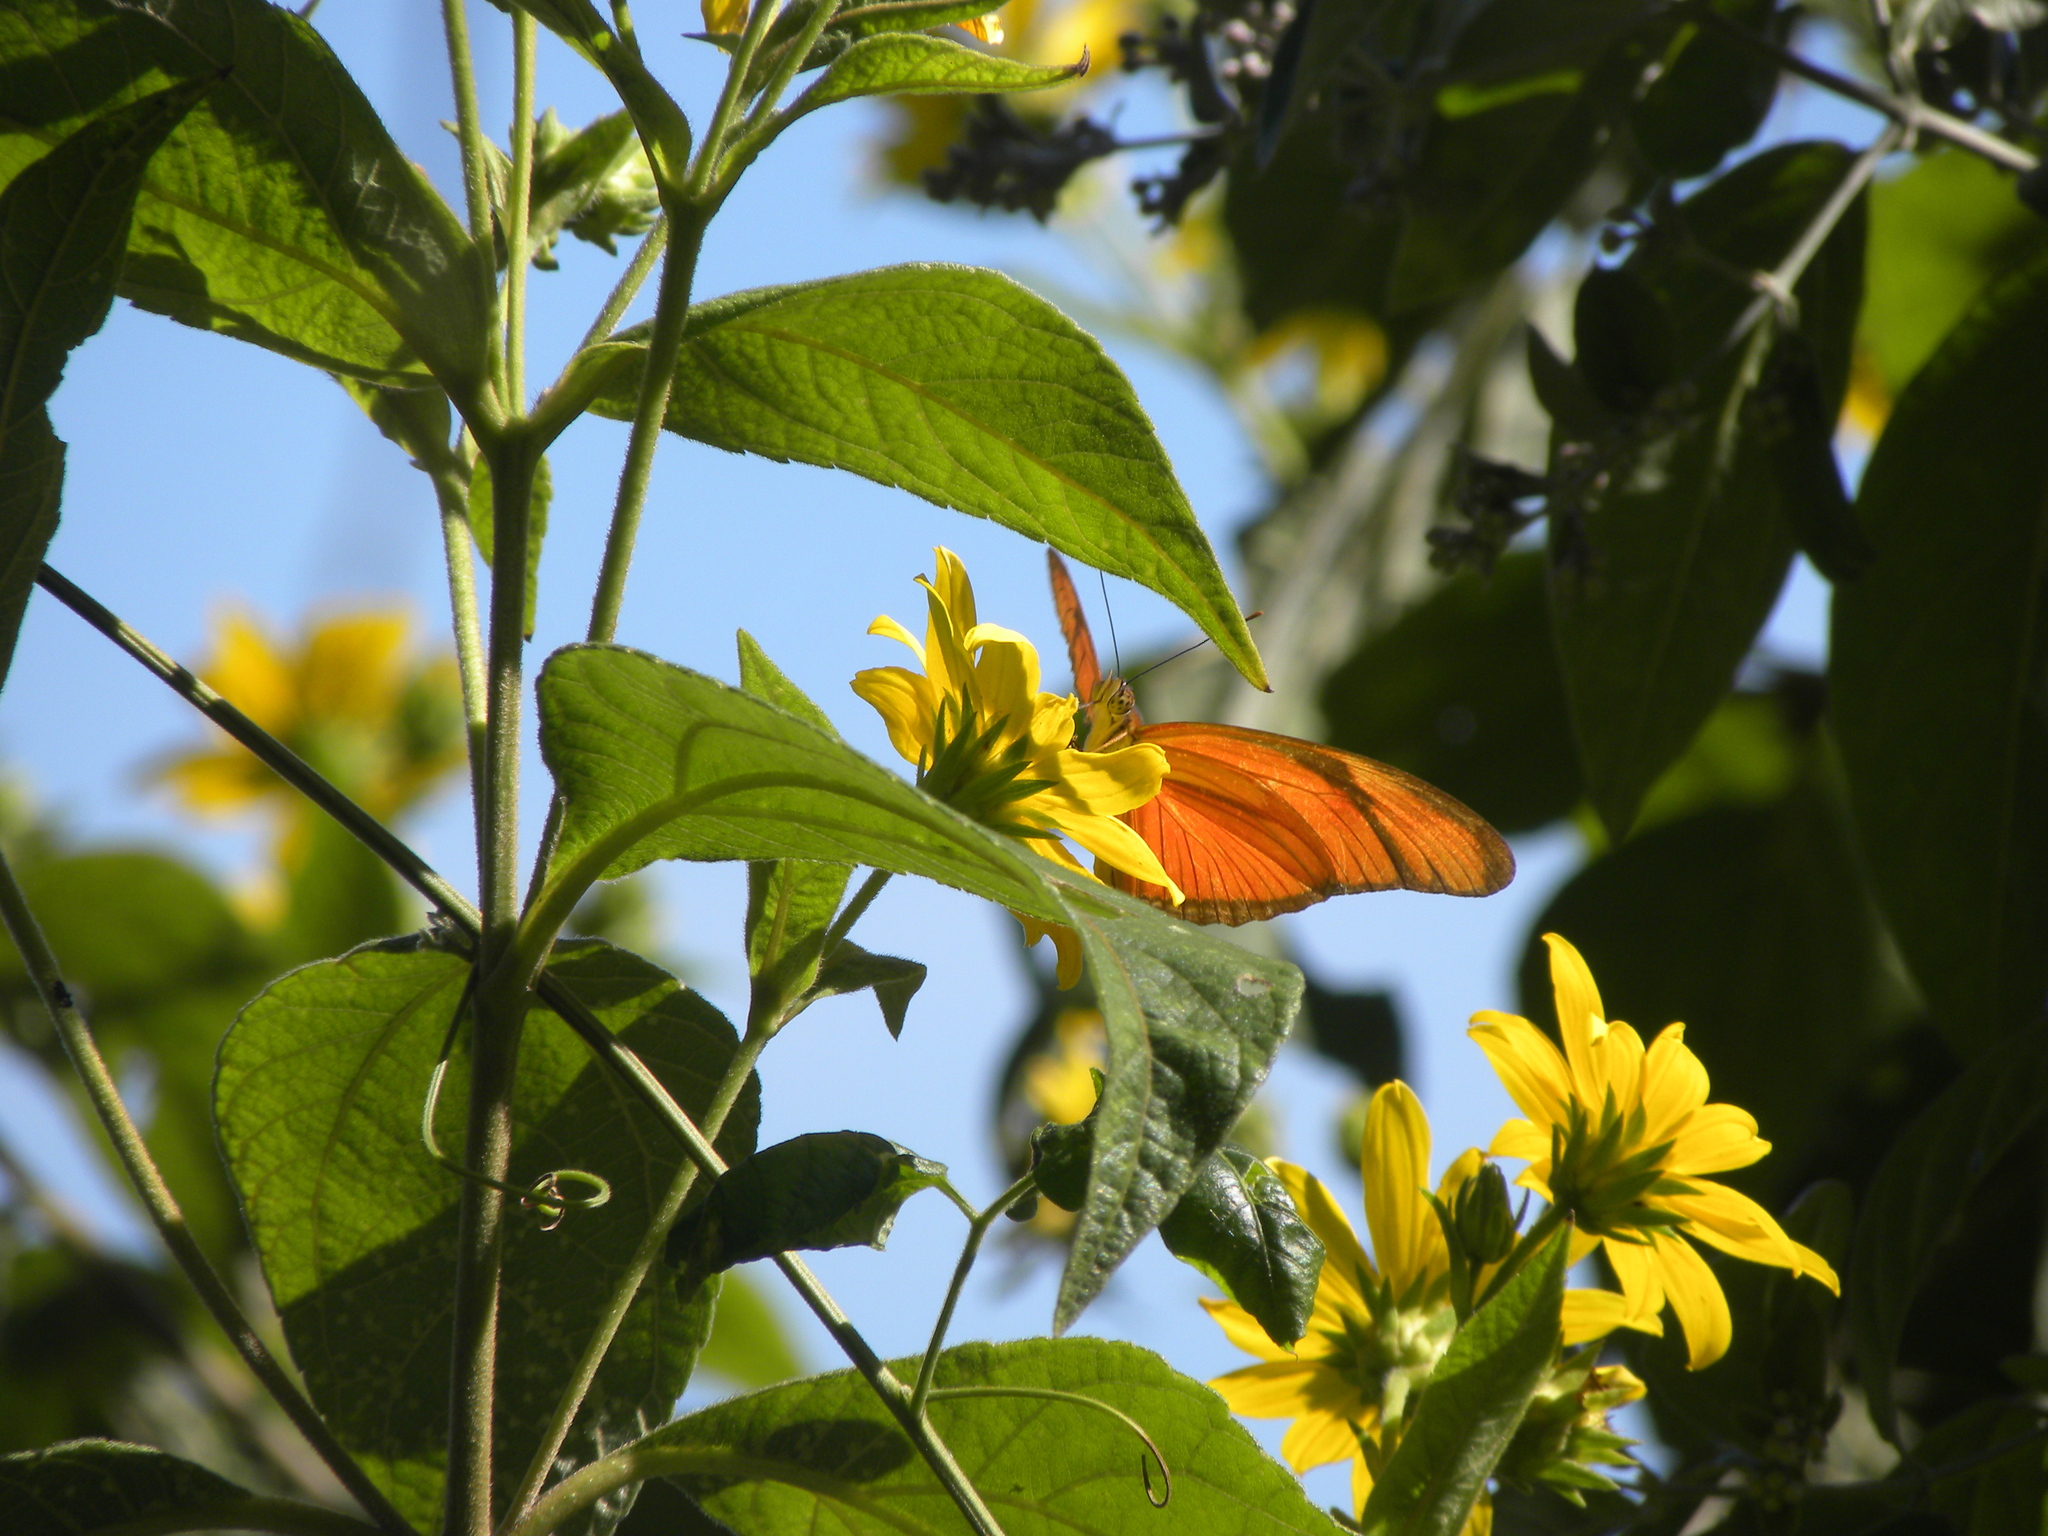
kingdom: Animalia
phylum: Arthropoda
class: Insecta
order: Lepidoptera
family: Nymphalidae
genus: Dryas
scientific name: Dryas iulia
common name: Flambeau
